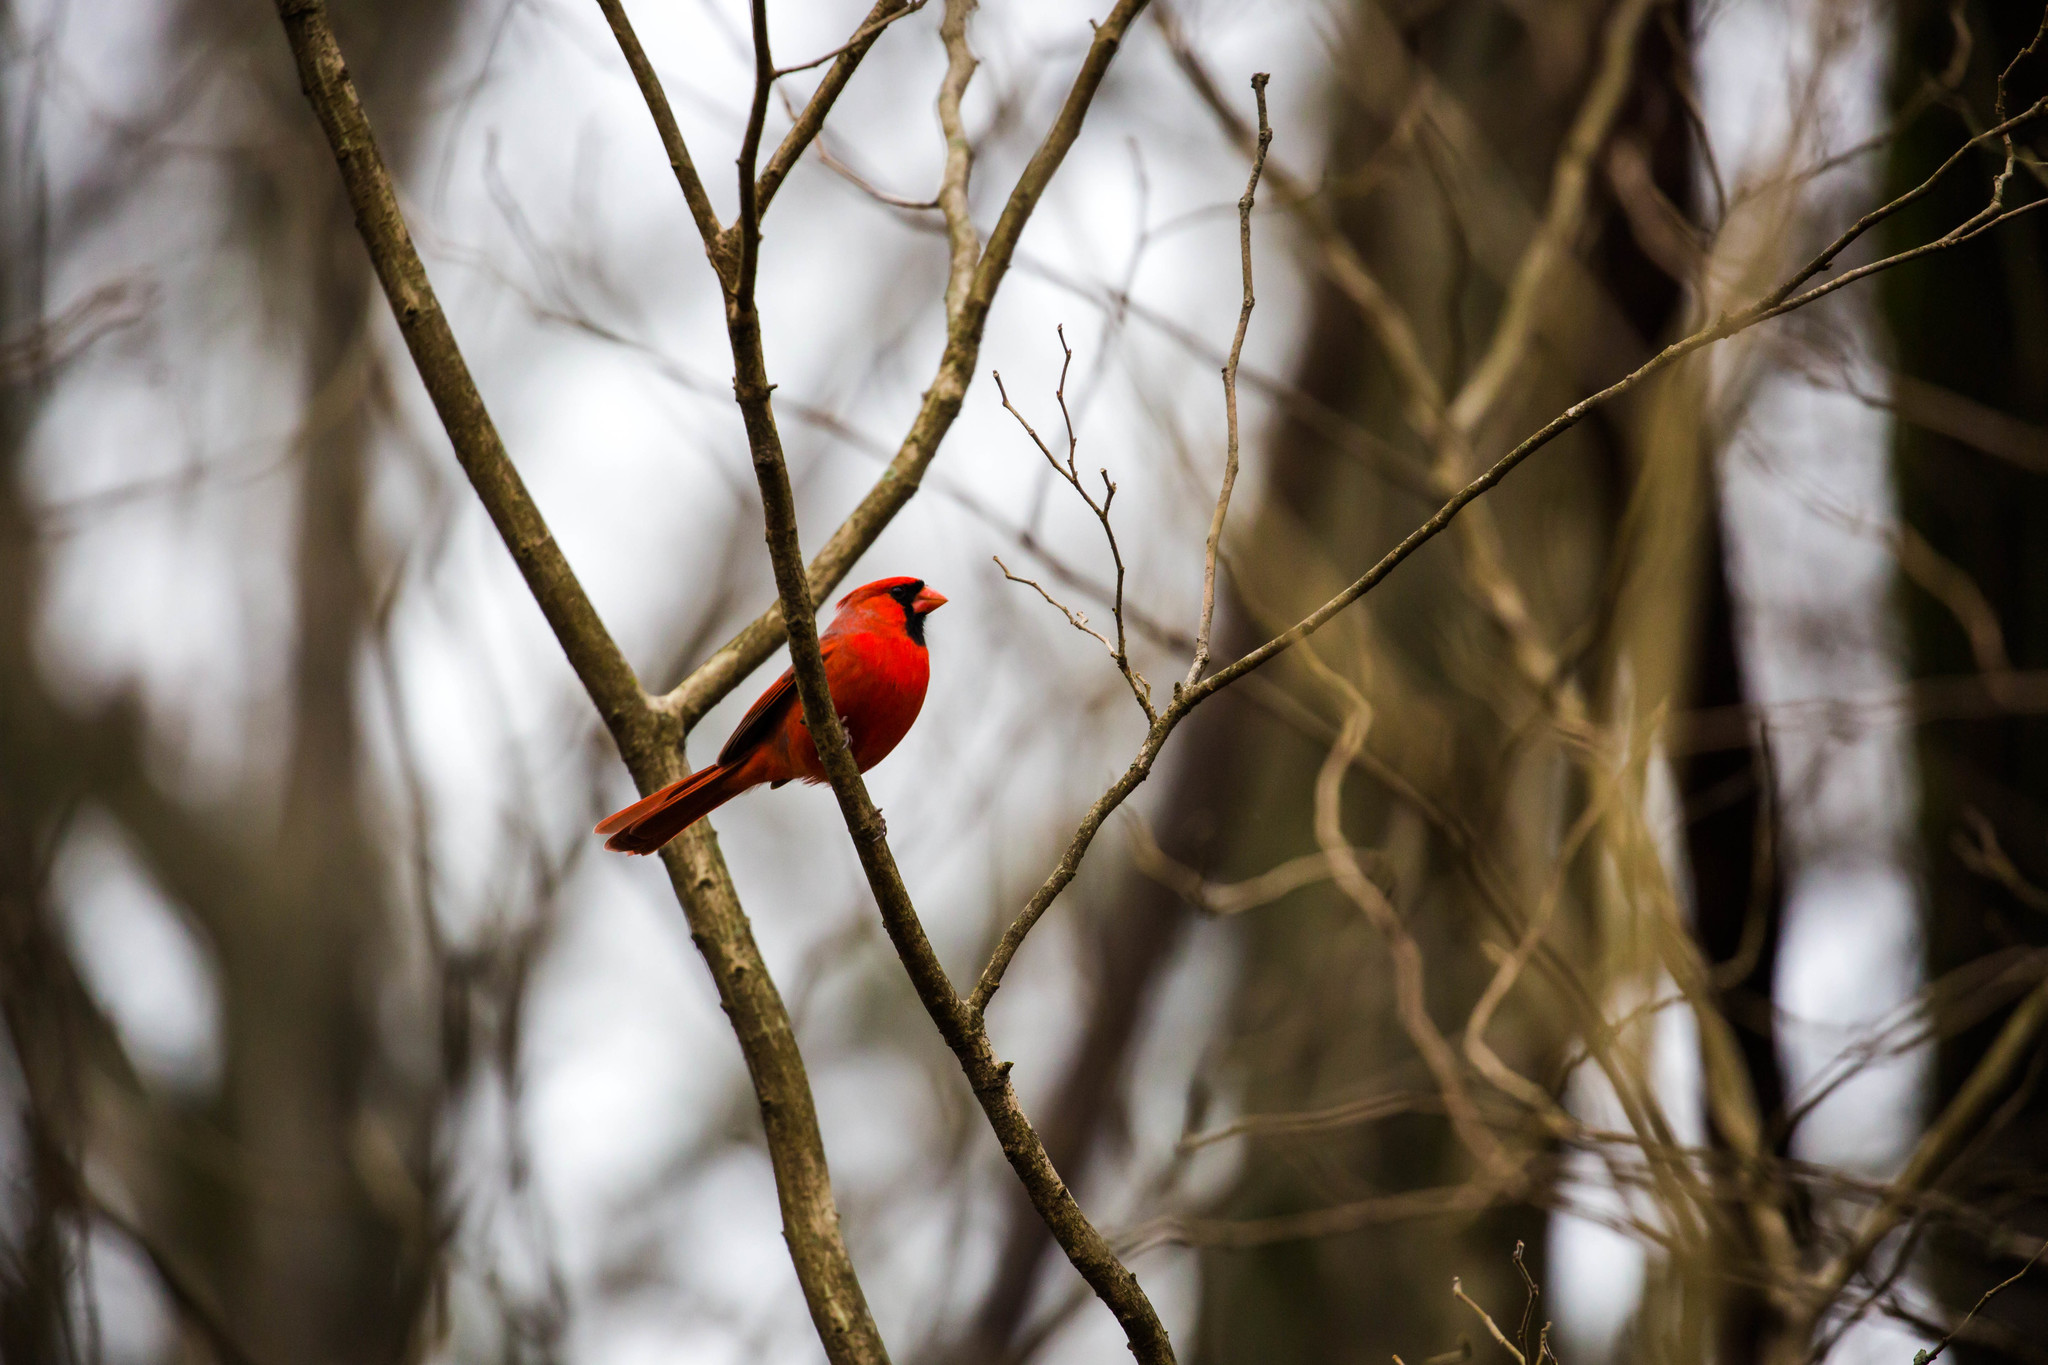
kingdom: Animalia
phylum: Chordata
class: Aves
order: Passeriformes
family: Cardinalidae
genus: Cardinalis
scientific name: Cardinalis cardinalis
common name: Northern cardinal
